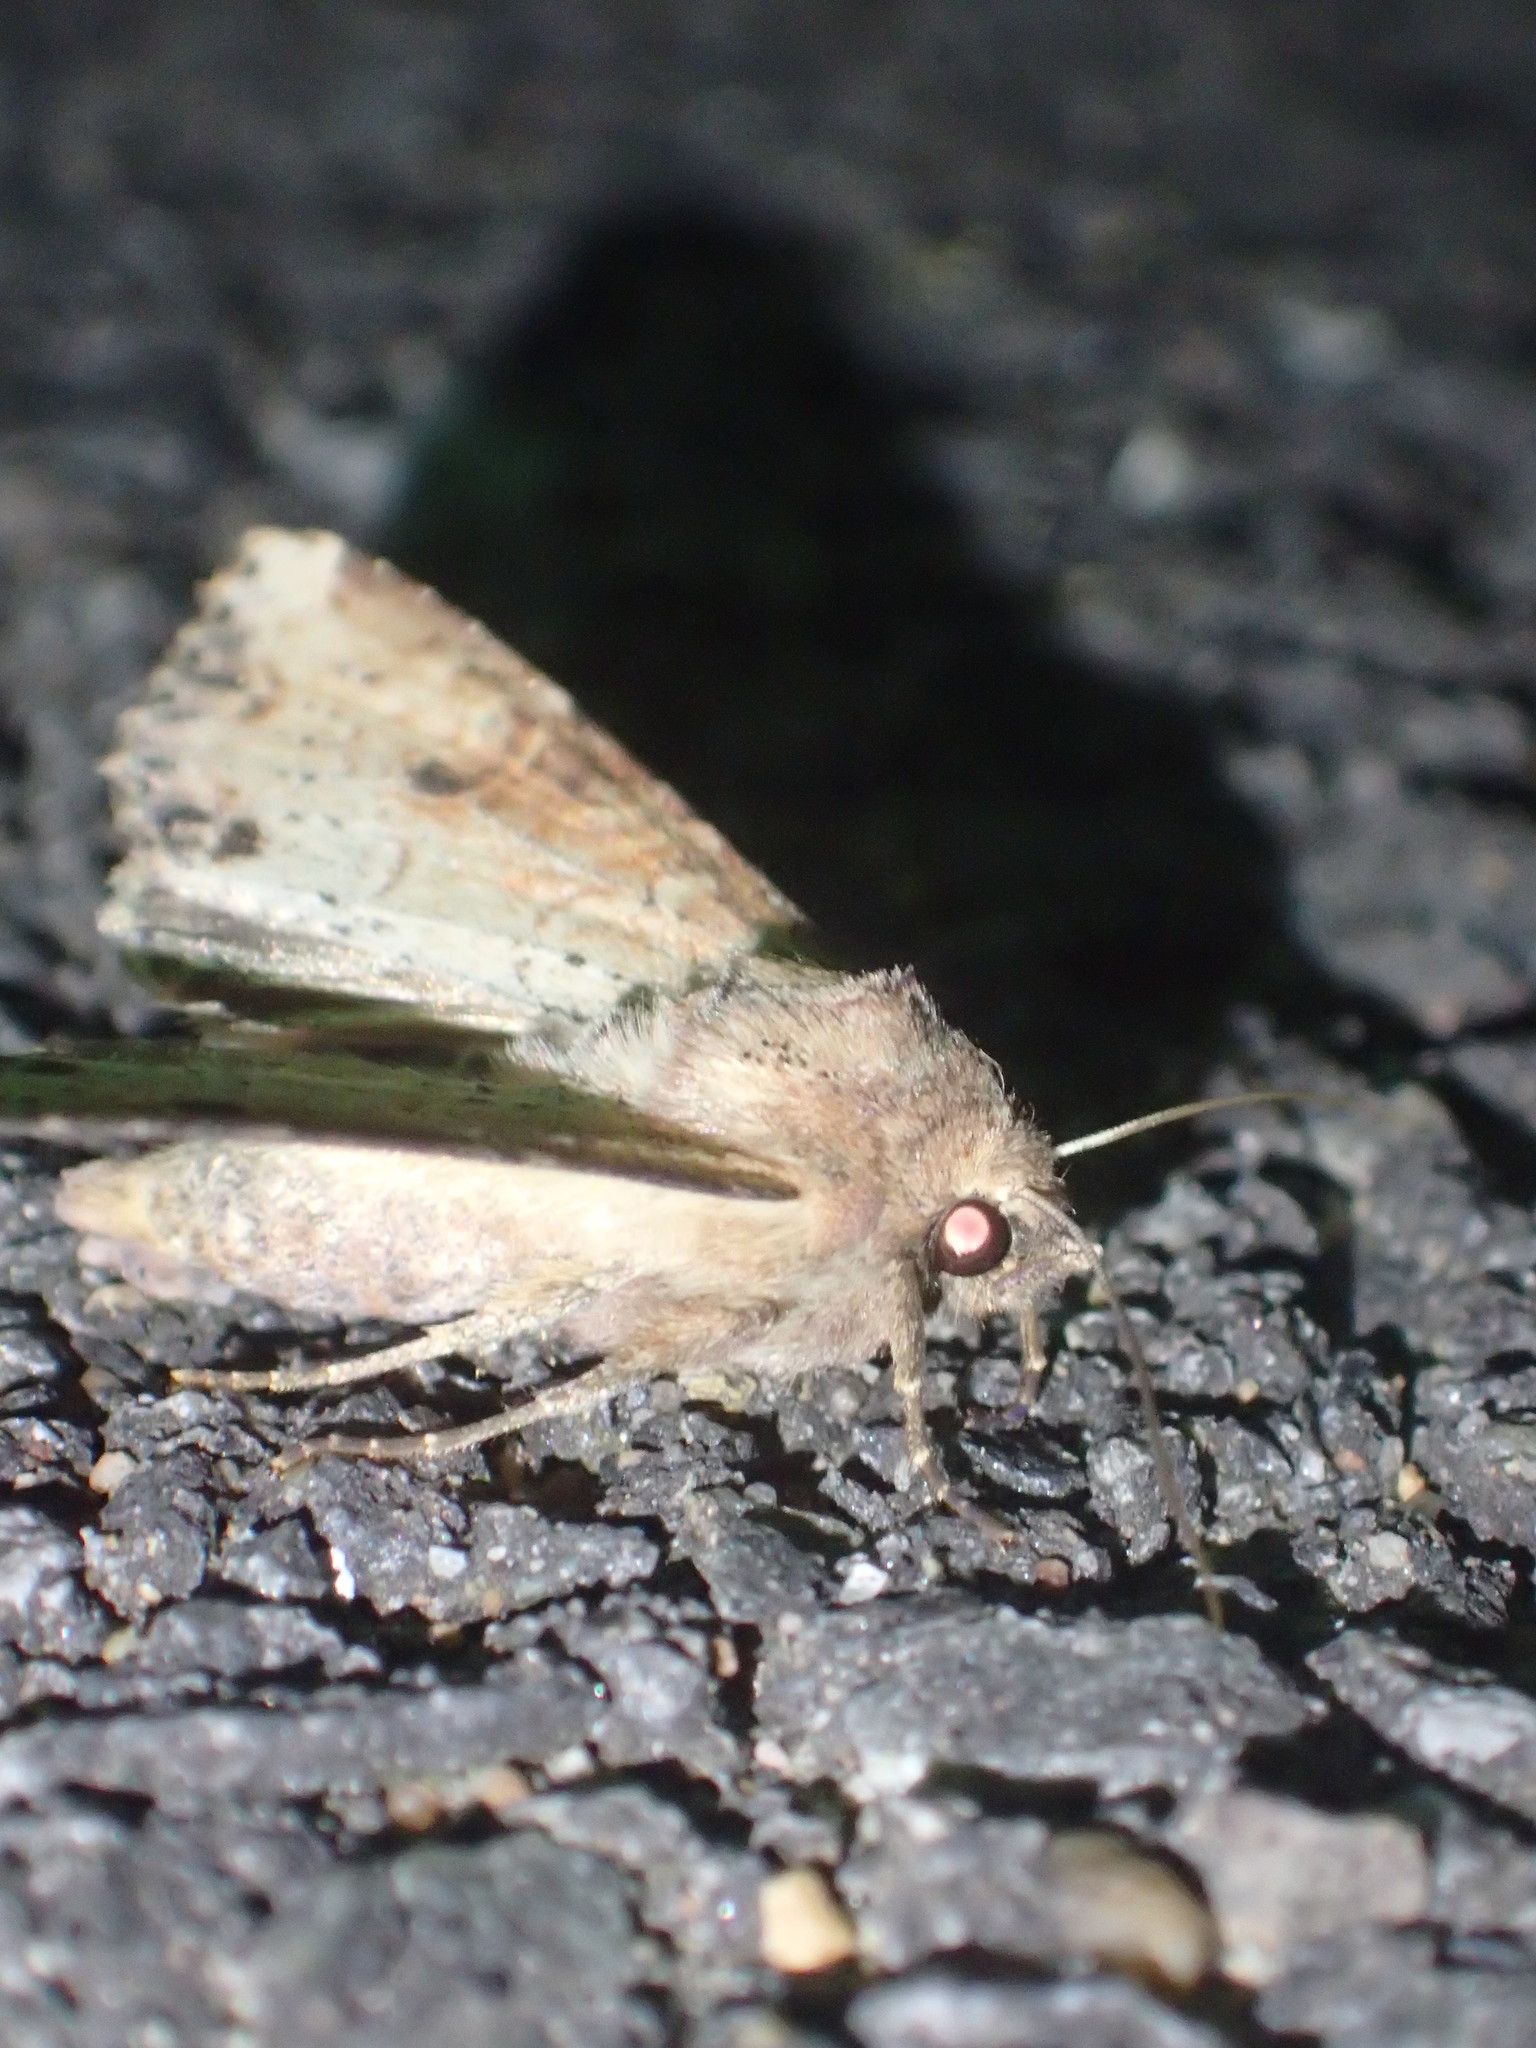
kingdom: Animalia
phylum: Arthropoda
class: Insecta
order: Lepidoptera
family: Noctuidae
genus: Apamea
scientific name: Apamea alia
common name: Fox apamea
